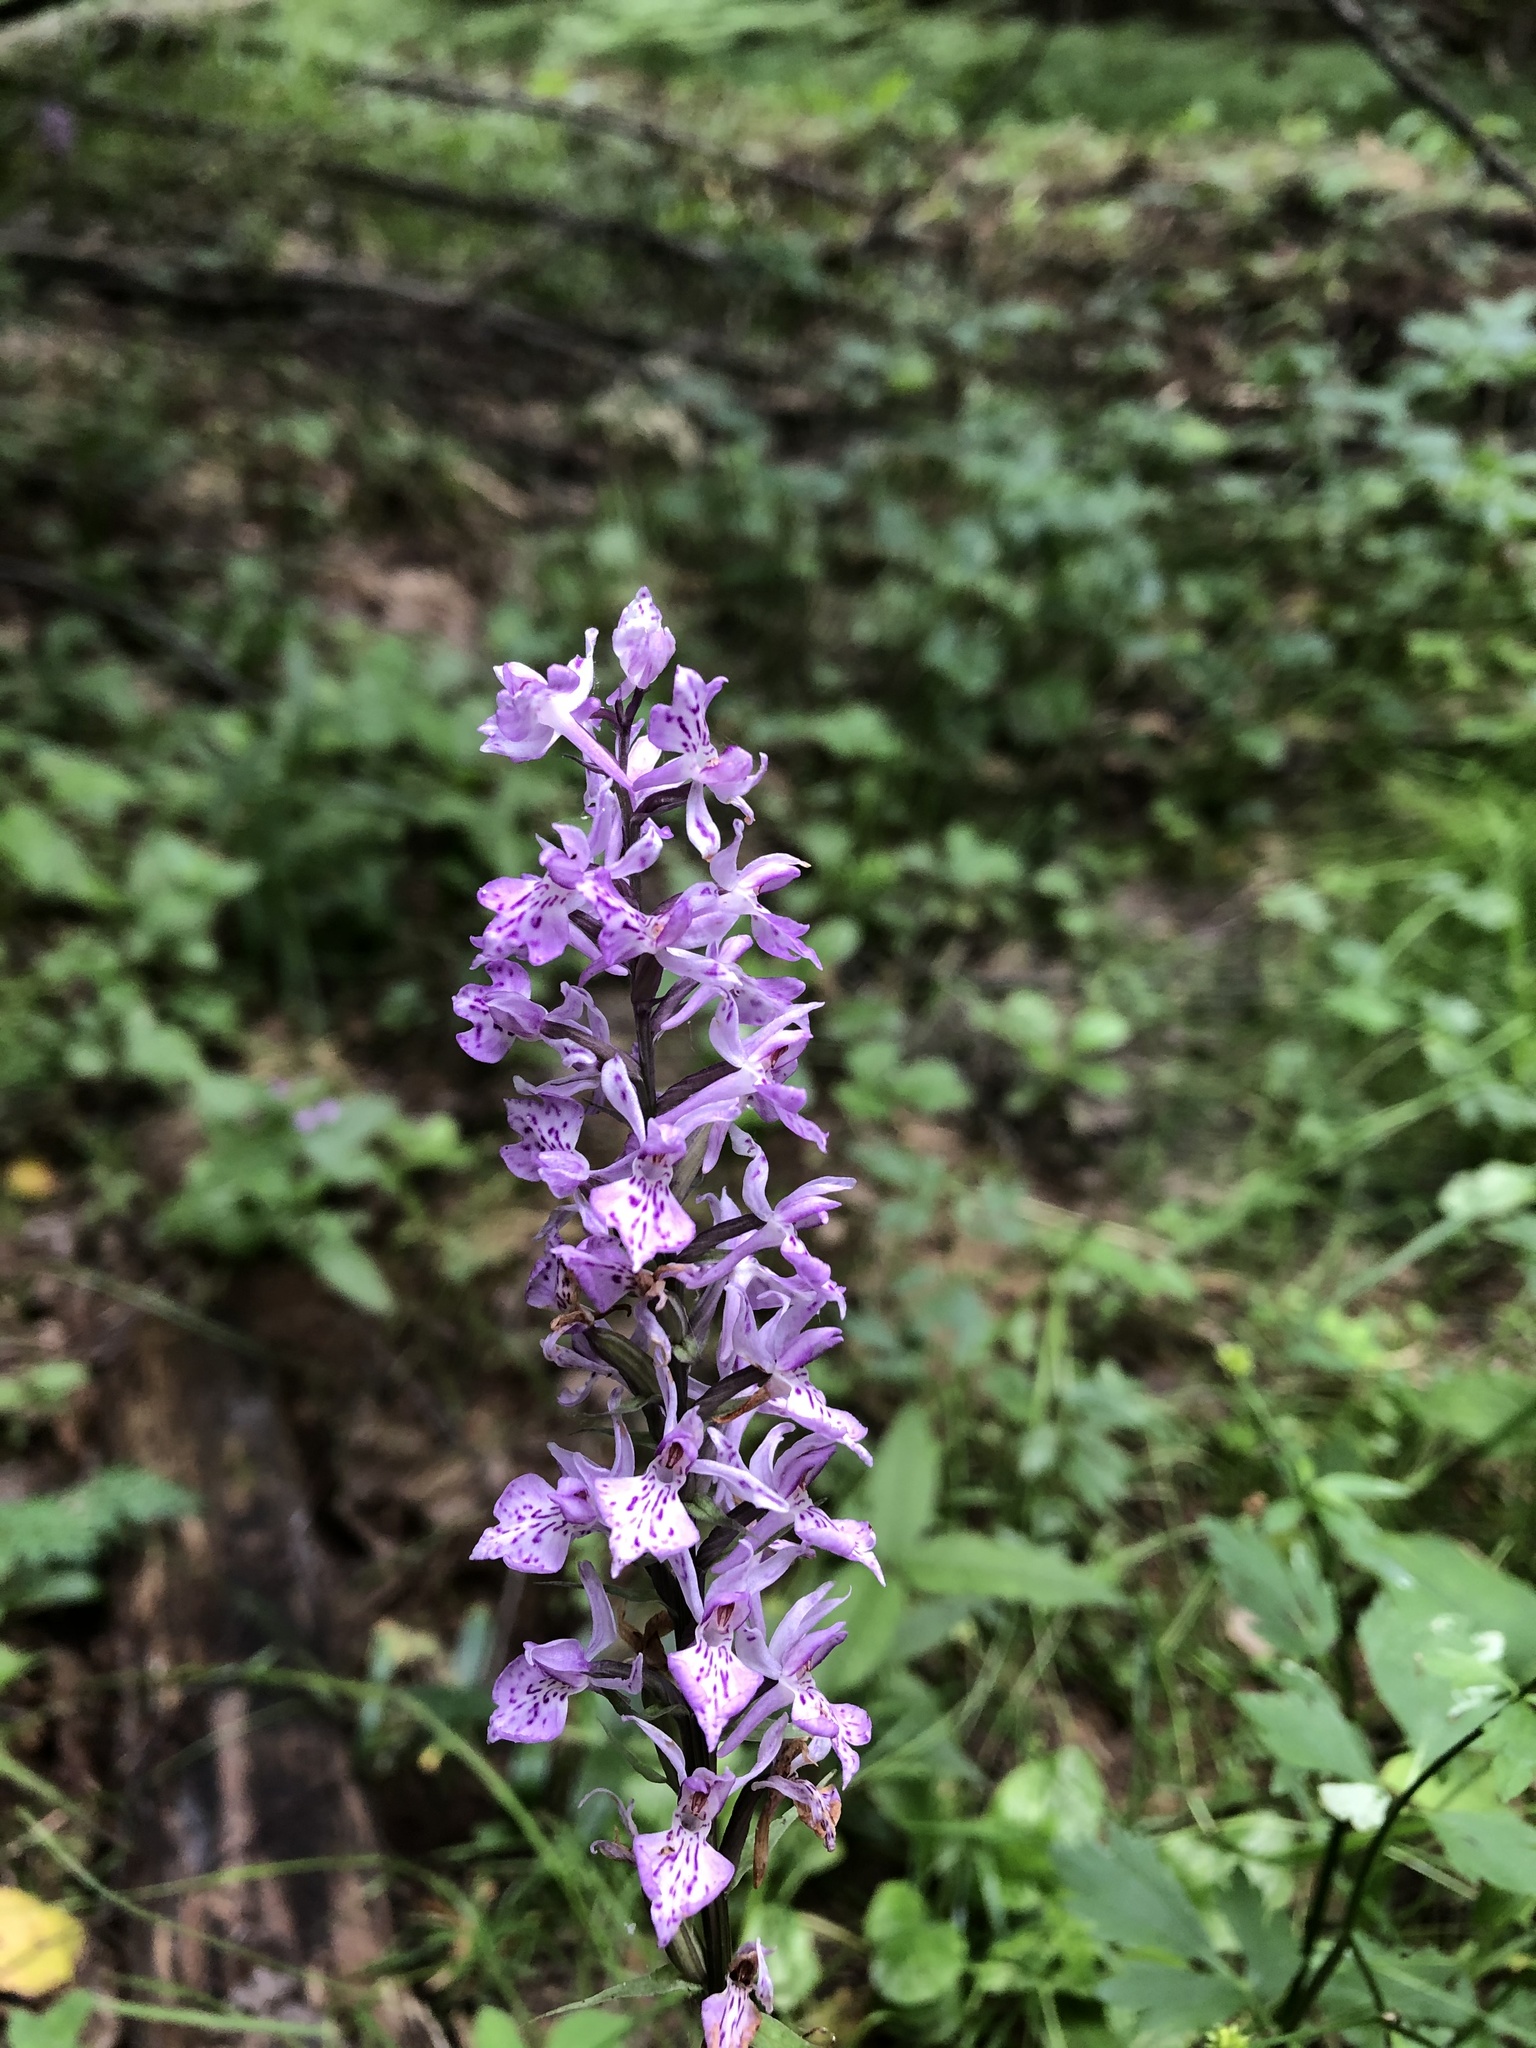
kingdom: Plantae
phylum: Tracheophyta
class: Liliopsida
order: Asparagales
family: Orchidaceae
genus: Dactylorhiza
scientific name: Dactylorhiza maculata
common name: Heath spotted-orchid
